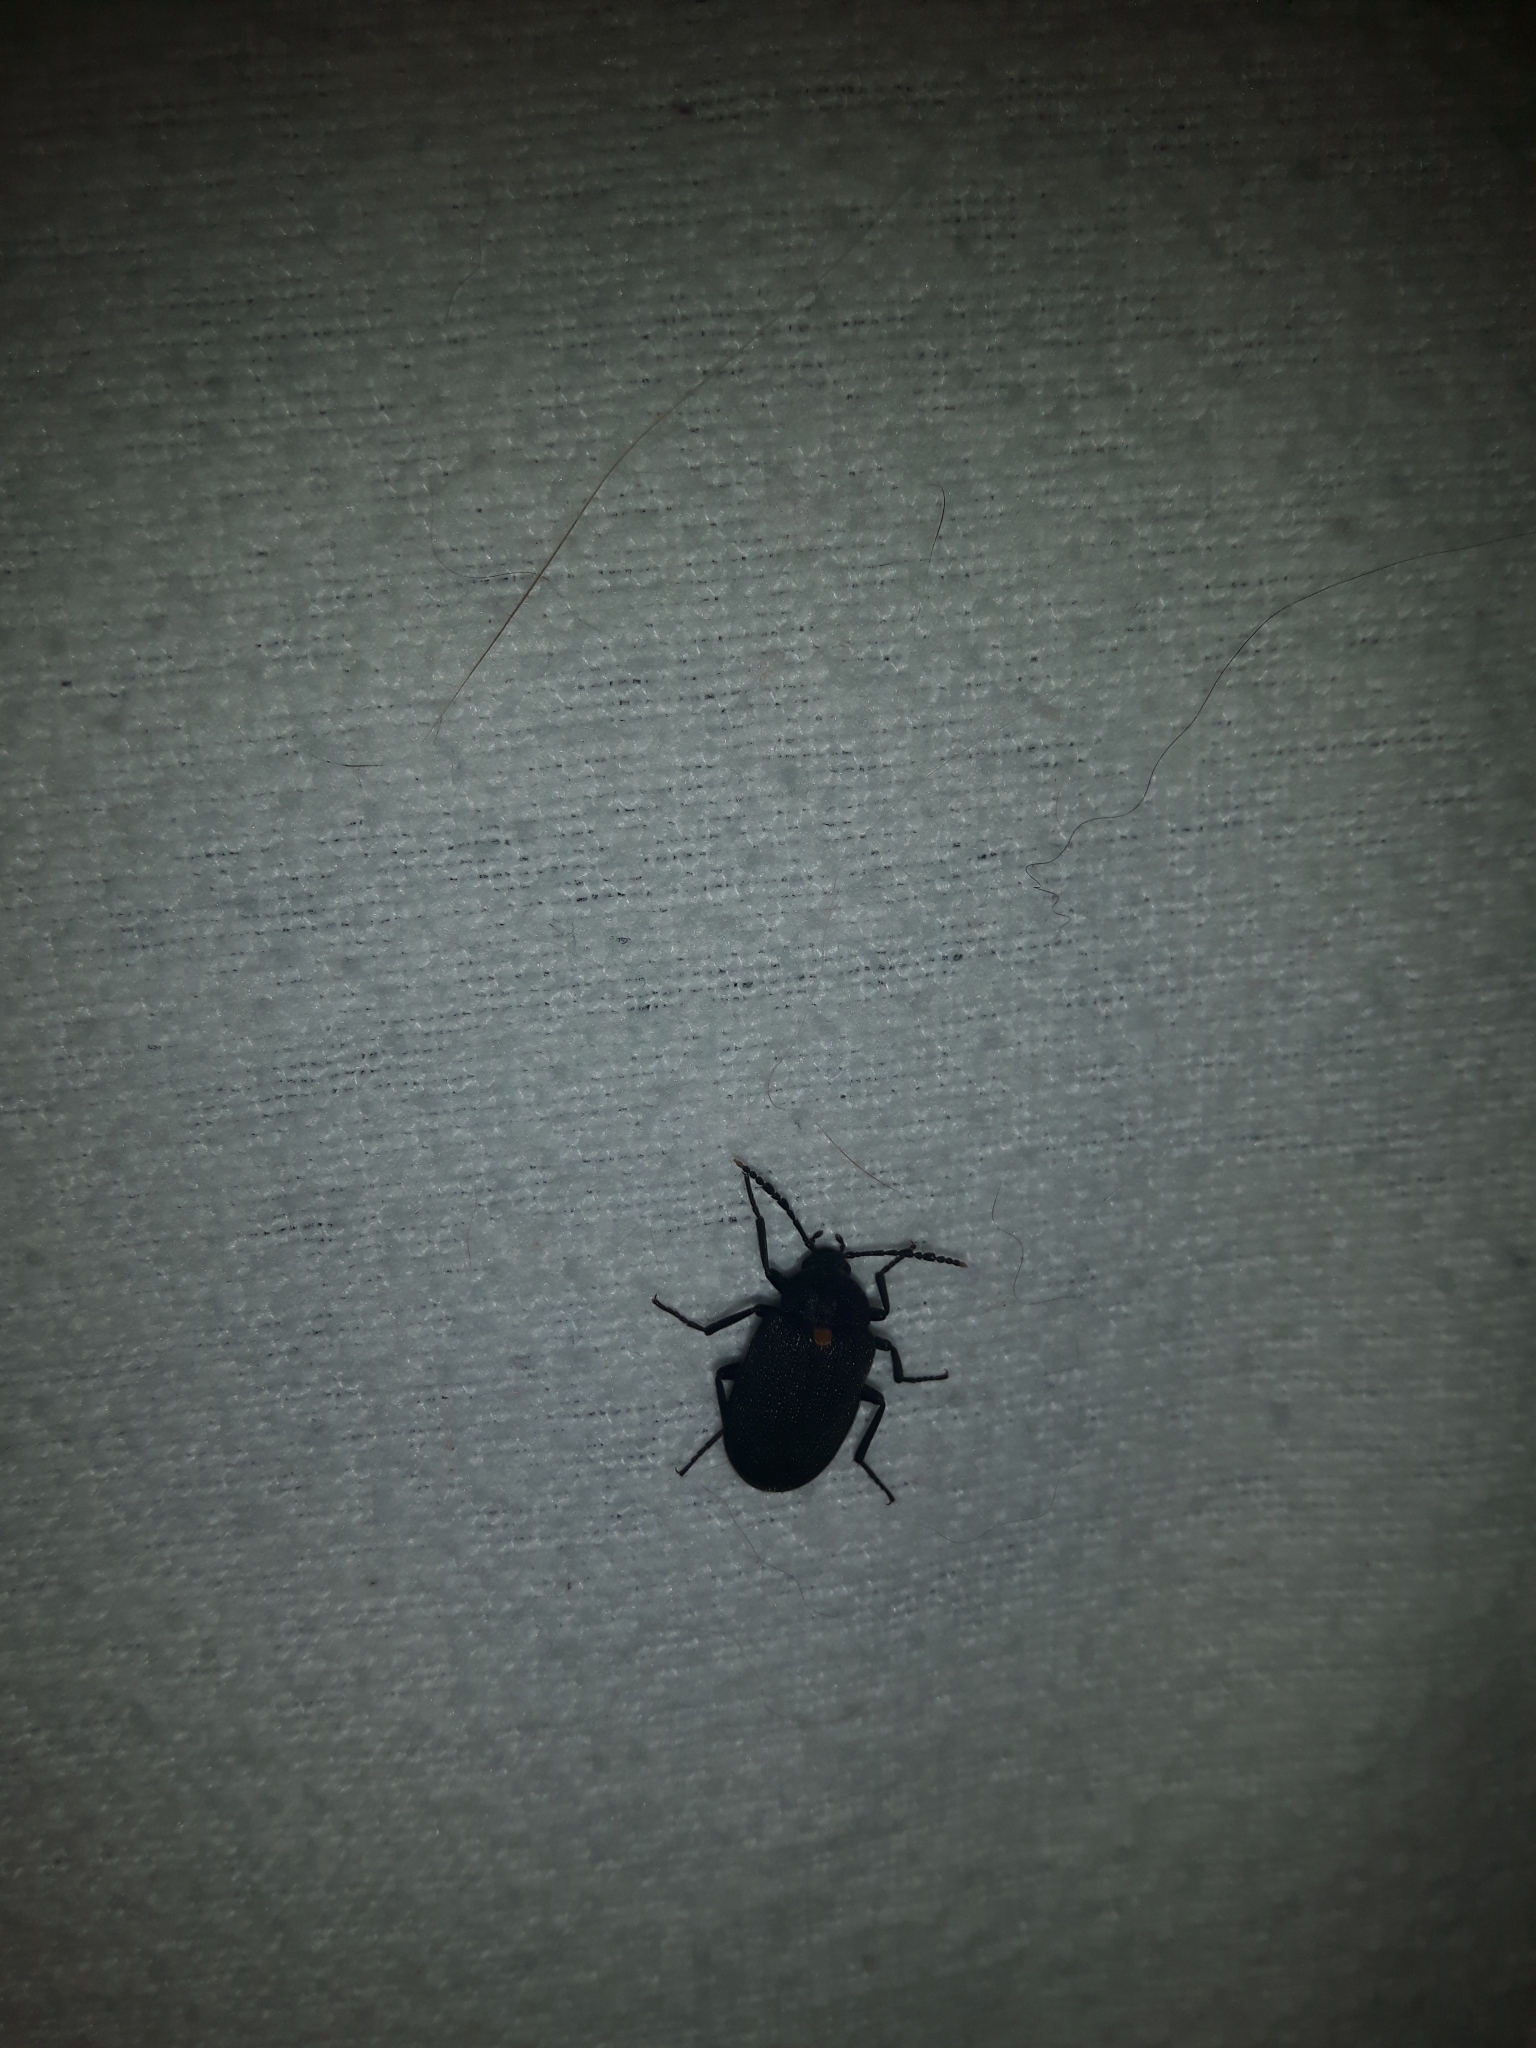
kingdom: Animalia
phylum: Arthropoda
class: Insecta
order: Coleoptera
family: Tetratomidae
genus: Penthe
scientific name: Penthe obliquata
